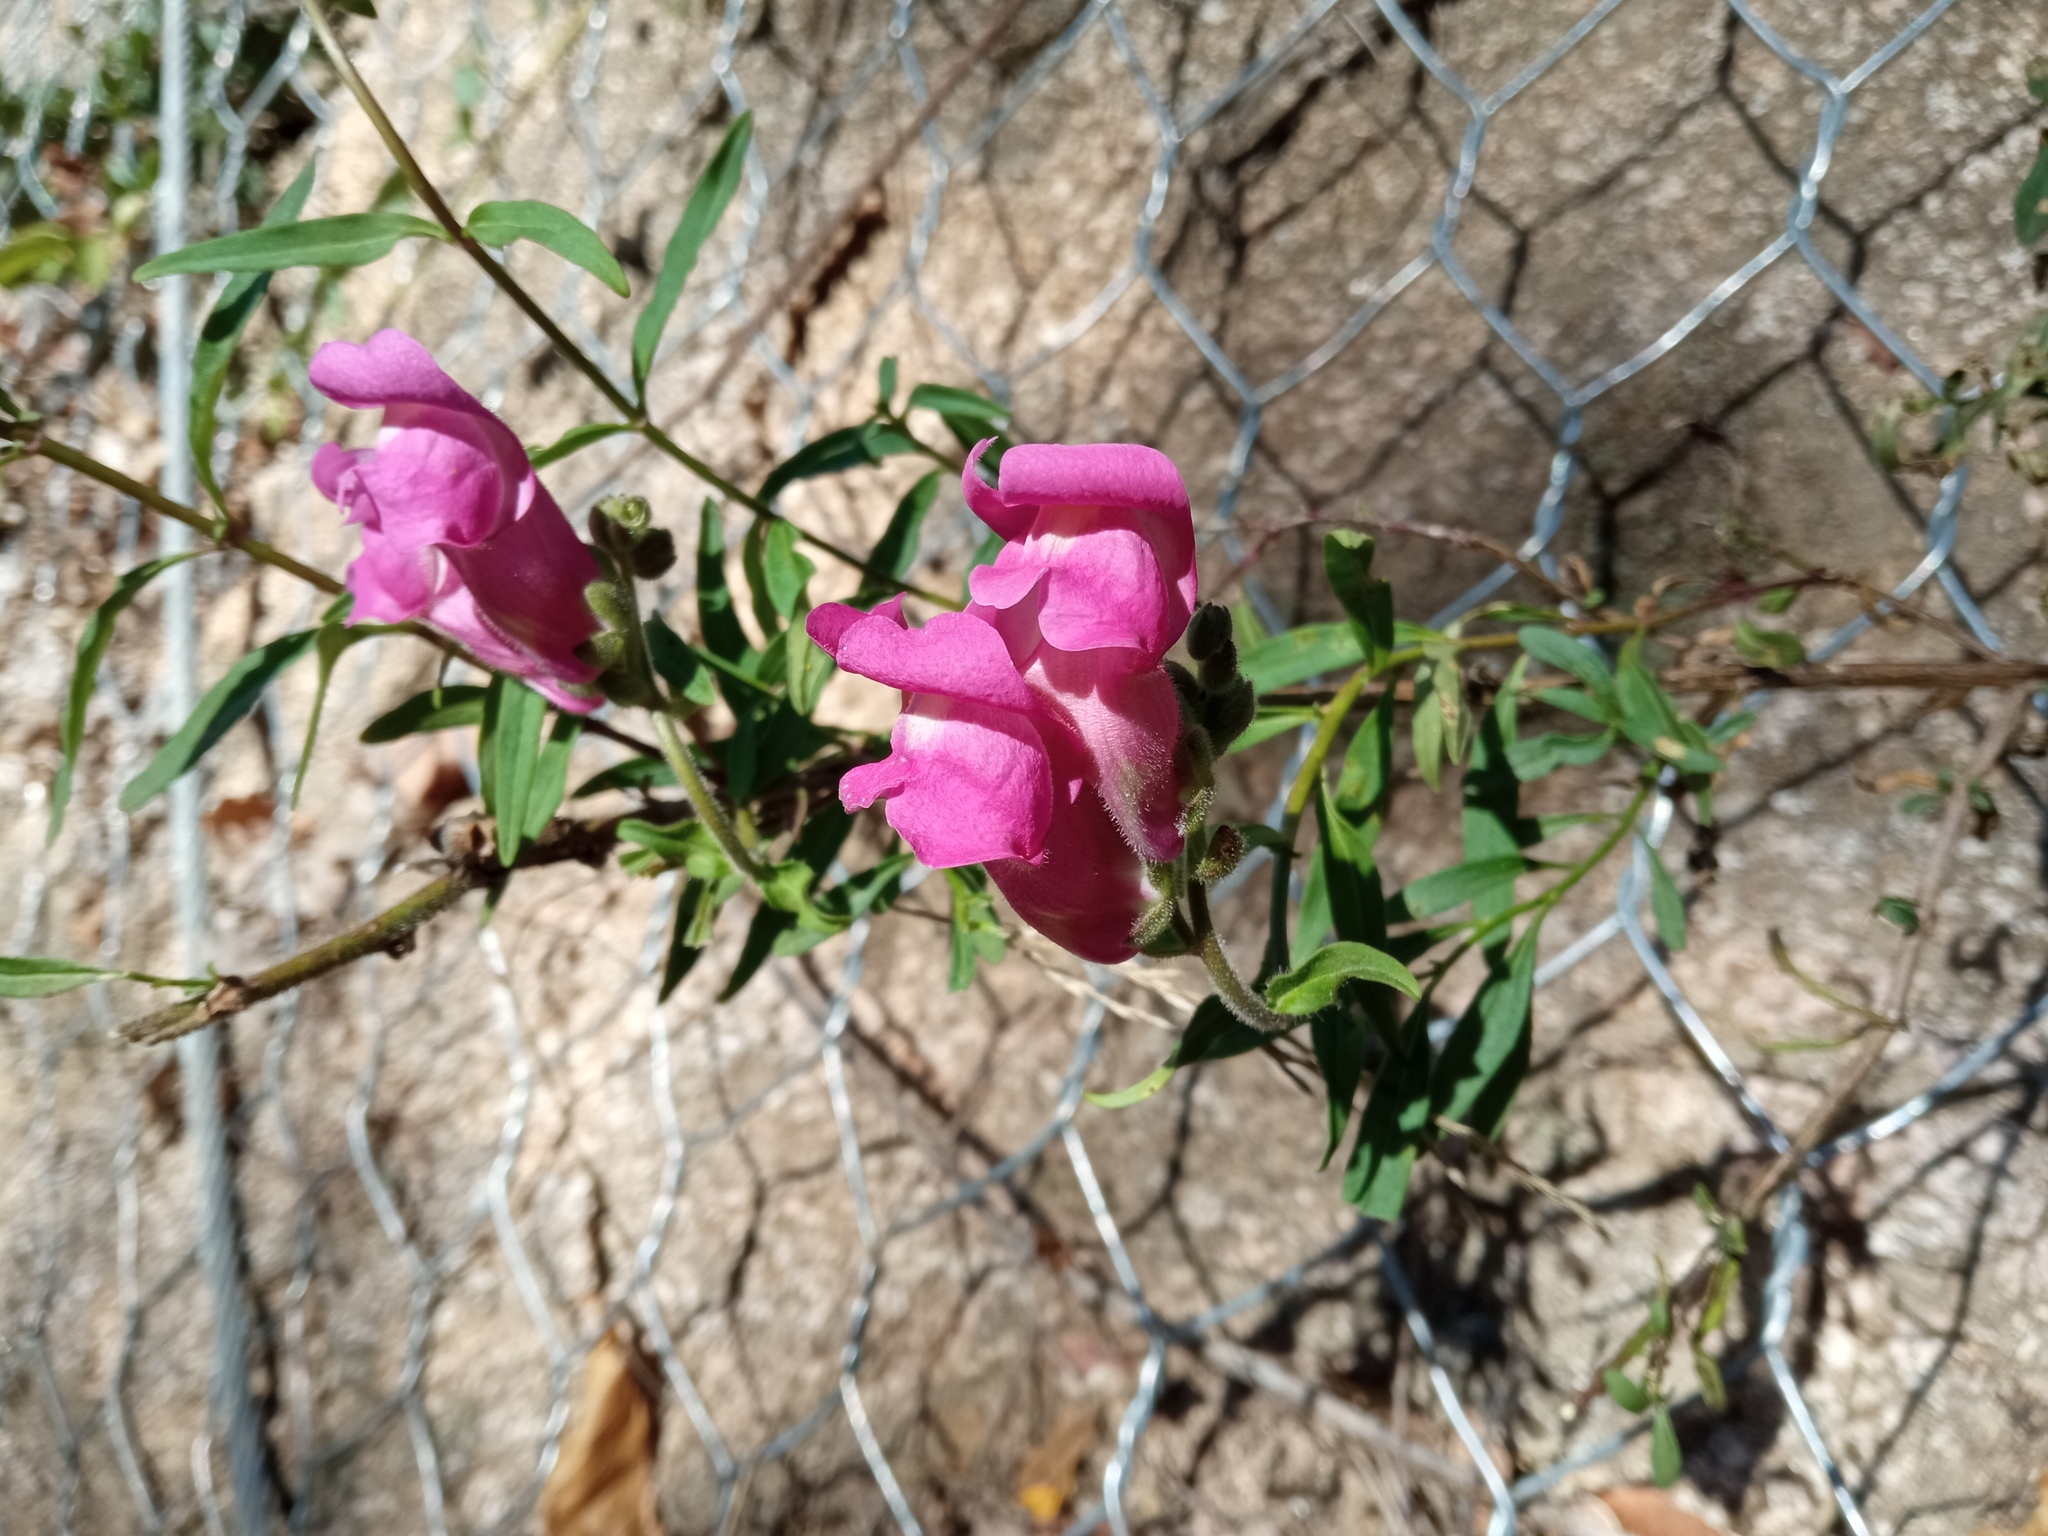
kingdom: Plantae
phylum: Tracheophyta
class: Magnoliopsida
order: Lamiales
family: Plantaginaceae
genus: Antirrhinum
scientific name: Antirrhinum majus
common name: Snapdragon
